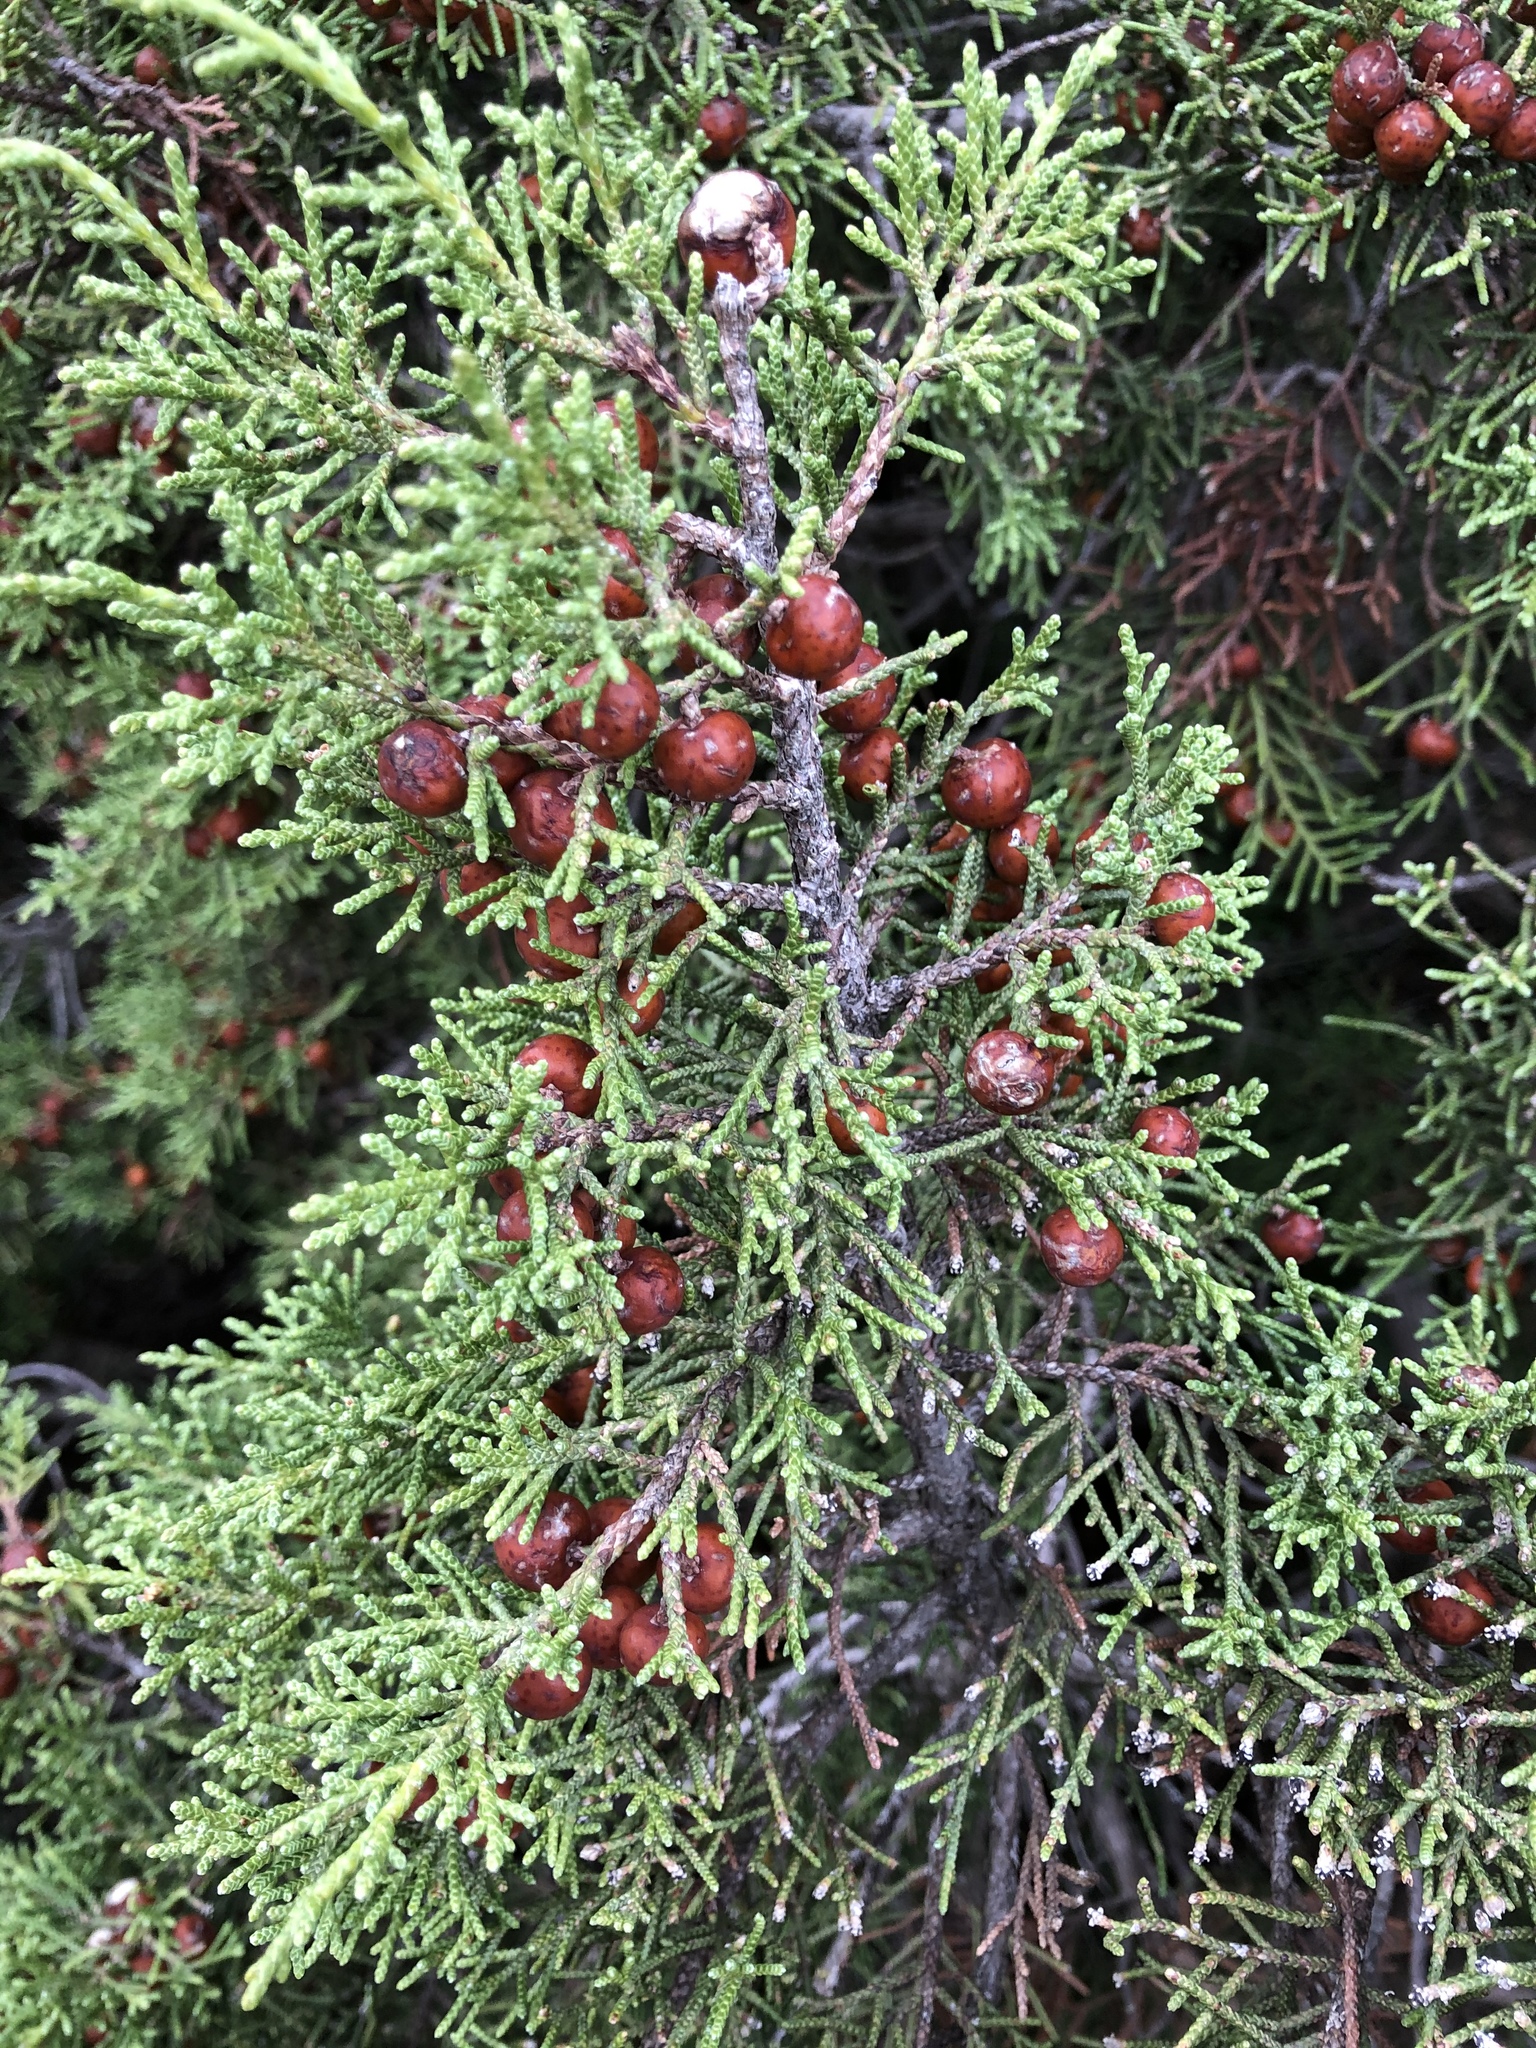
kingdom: Plantae
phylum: Tracheophyta
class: Pinopsida
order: Pinales
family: Cupressaceae
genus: Juniperus
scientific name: Juniperus phoenicea
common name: Phoenician juniper
